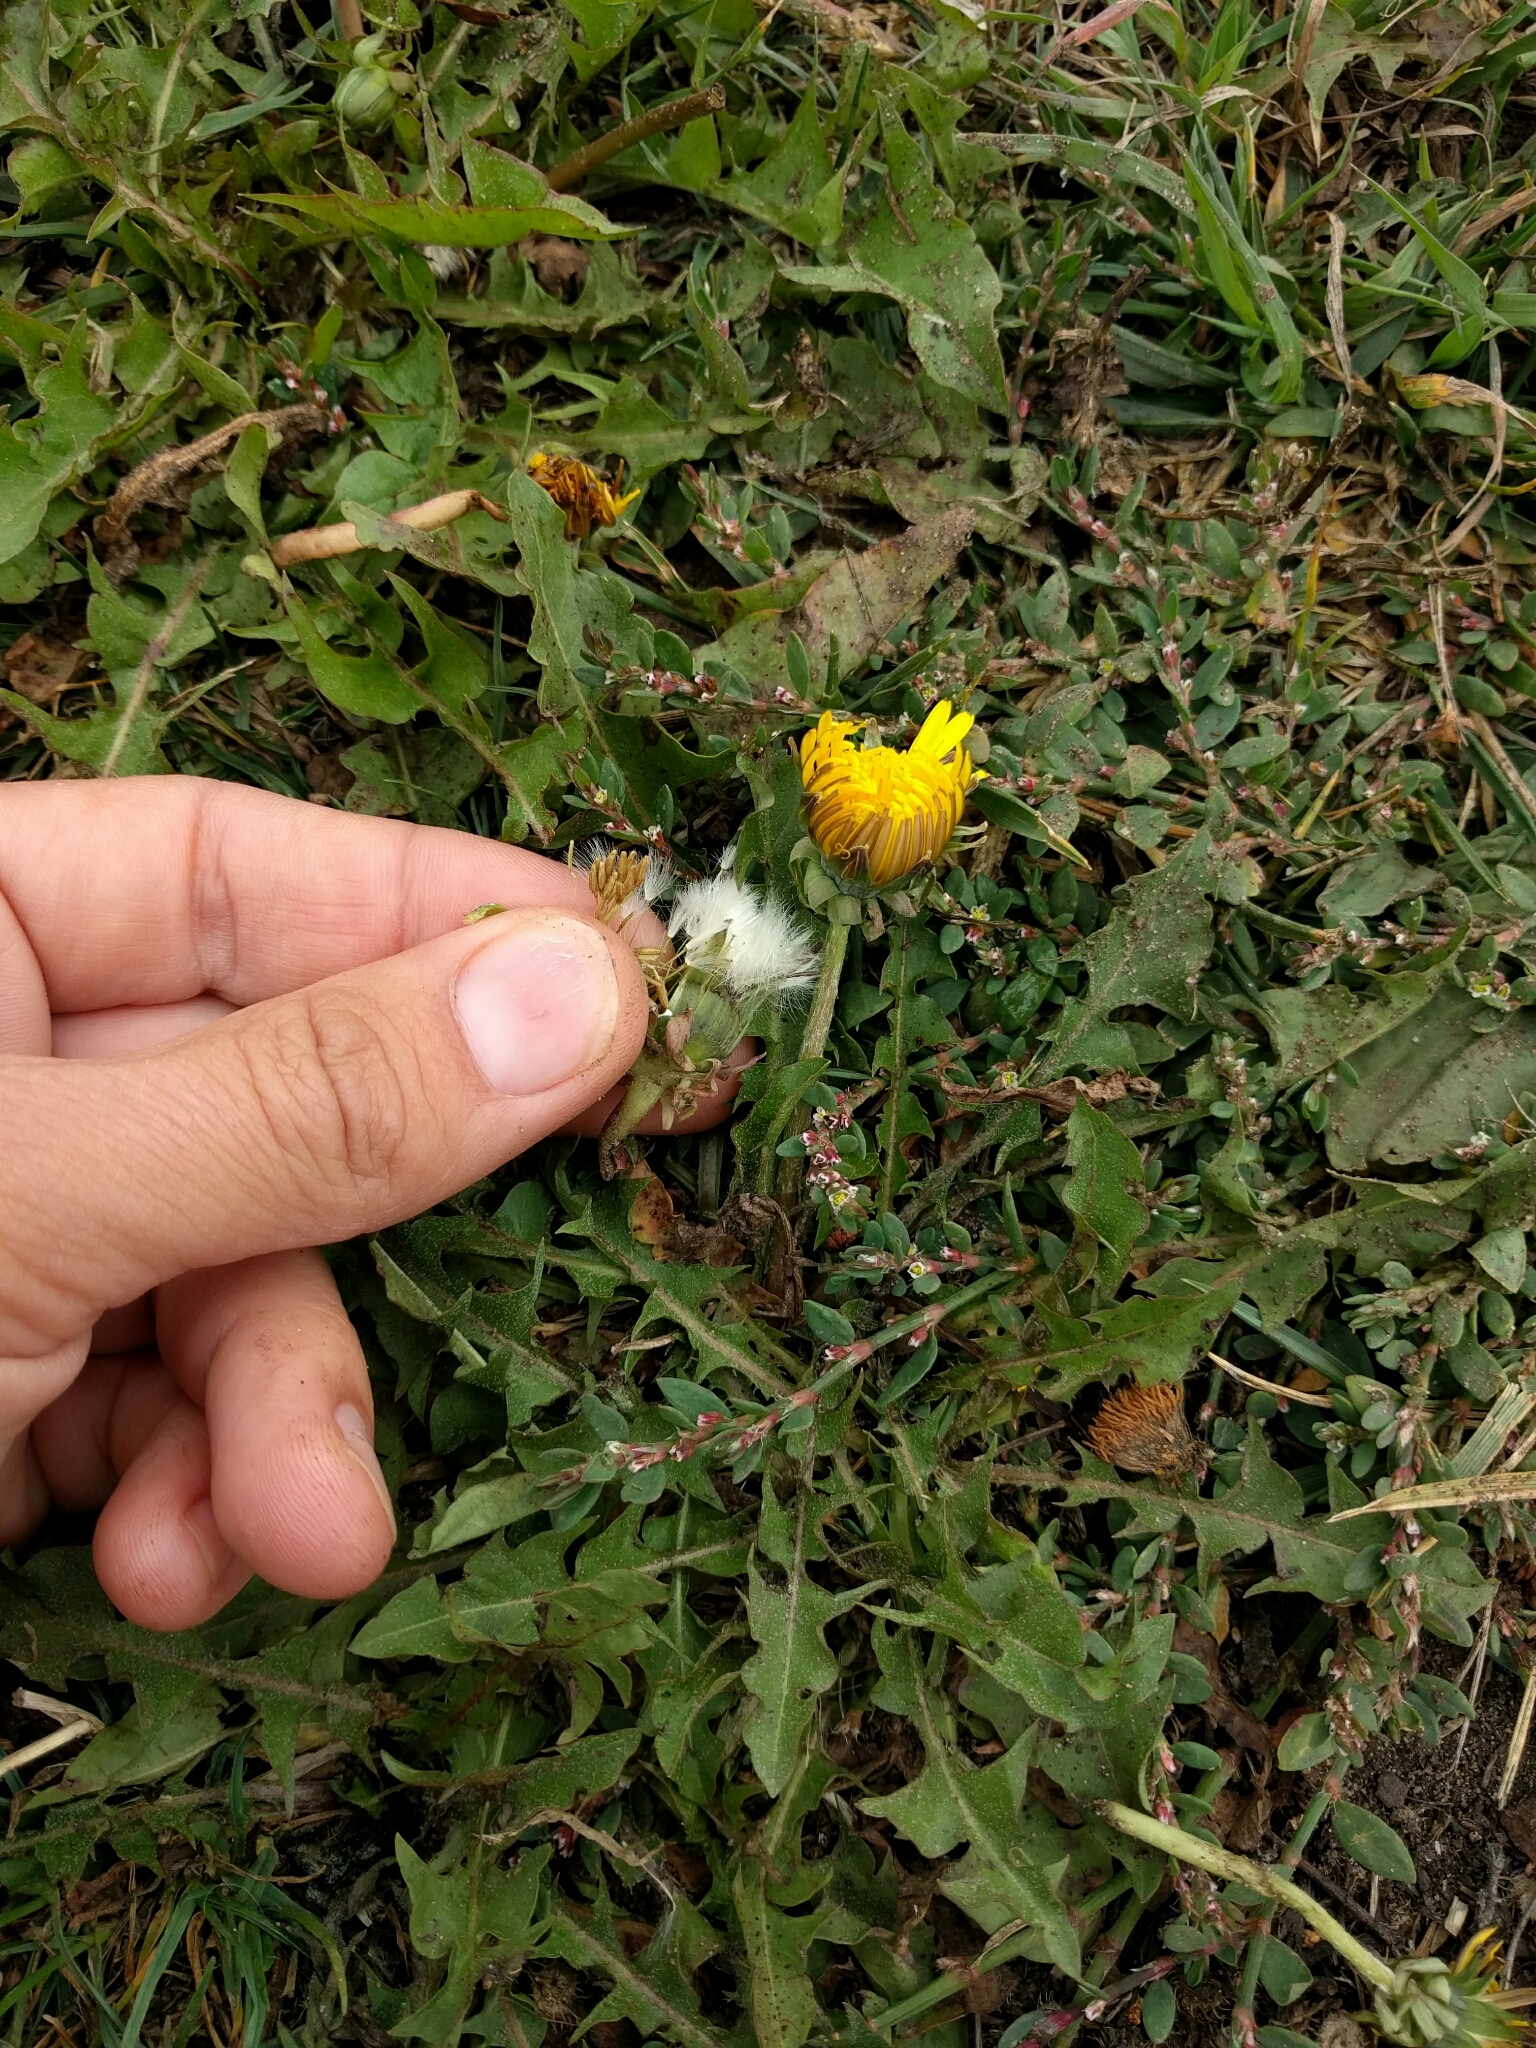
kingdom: Plantae
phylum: Tracheophyta
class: Magnoliopsida
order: Asterales
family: Asteraceae
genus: Taraxacum
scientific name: Taraxacum officinale
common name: Common dandelion
